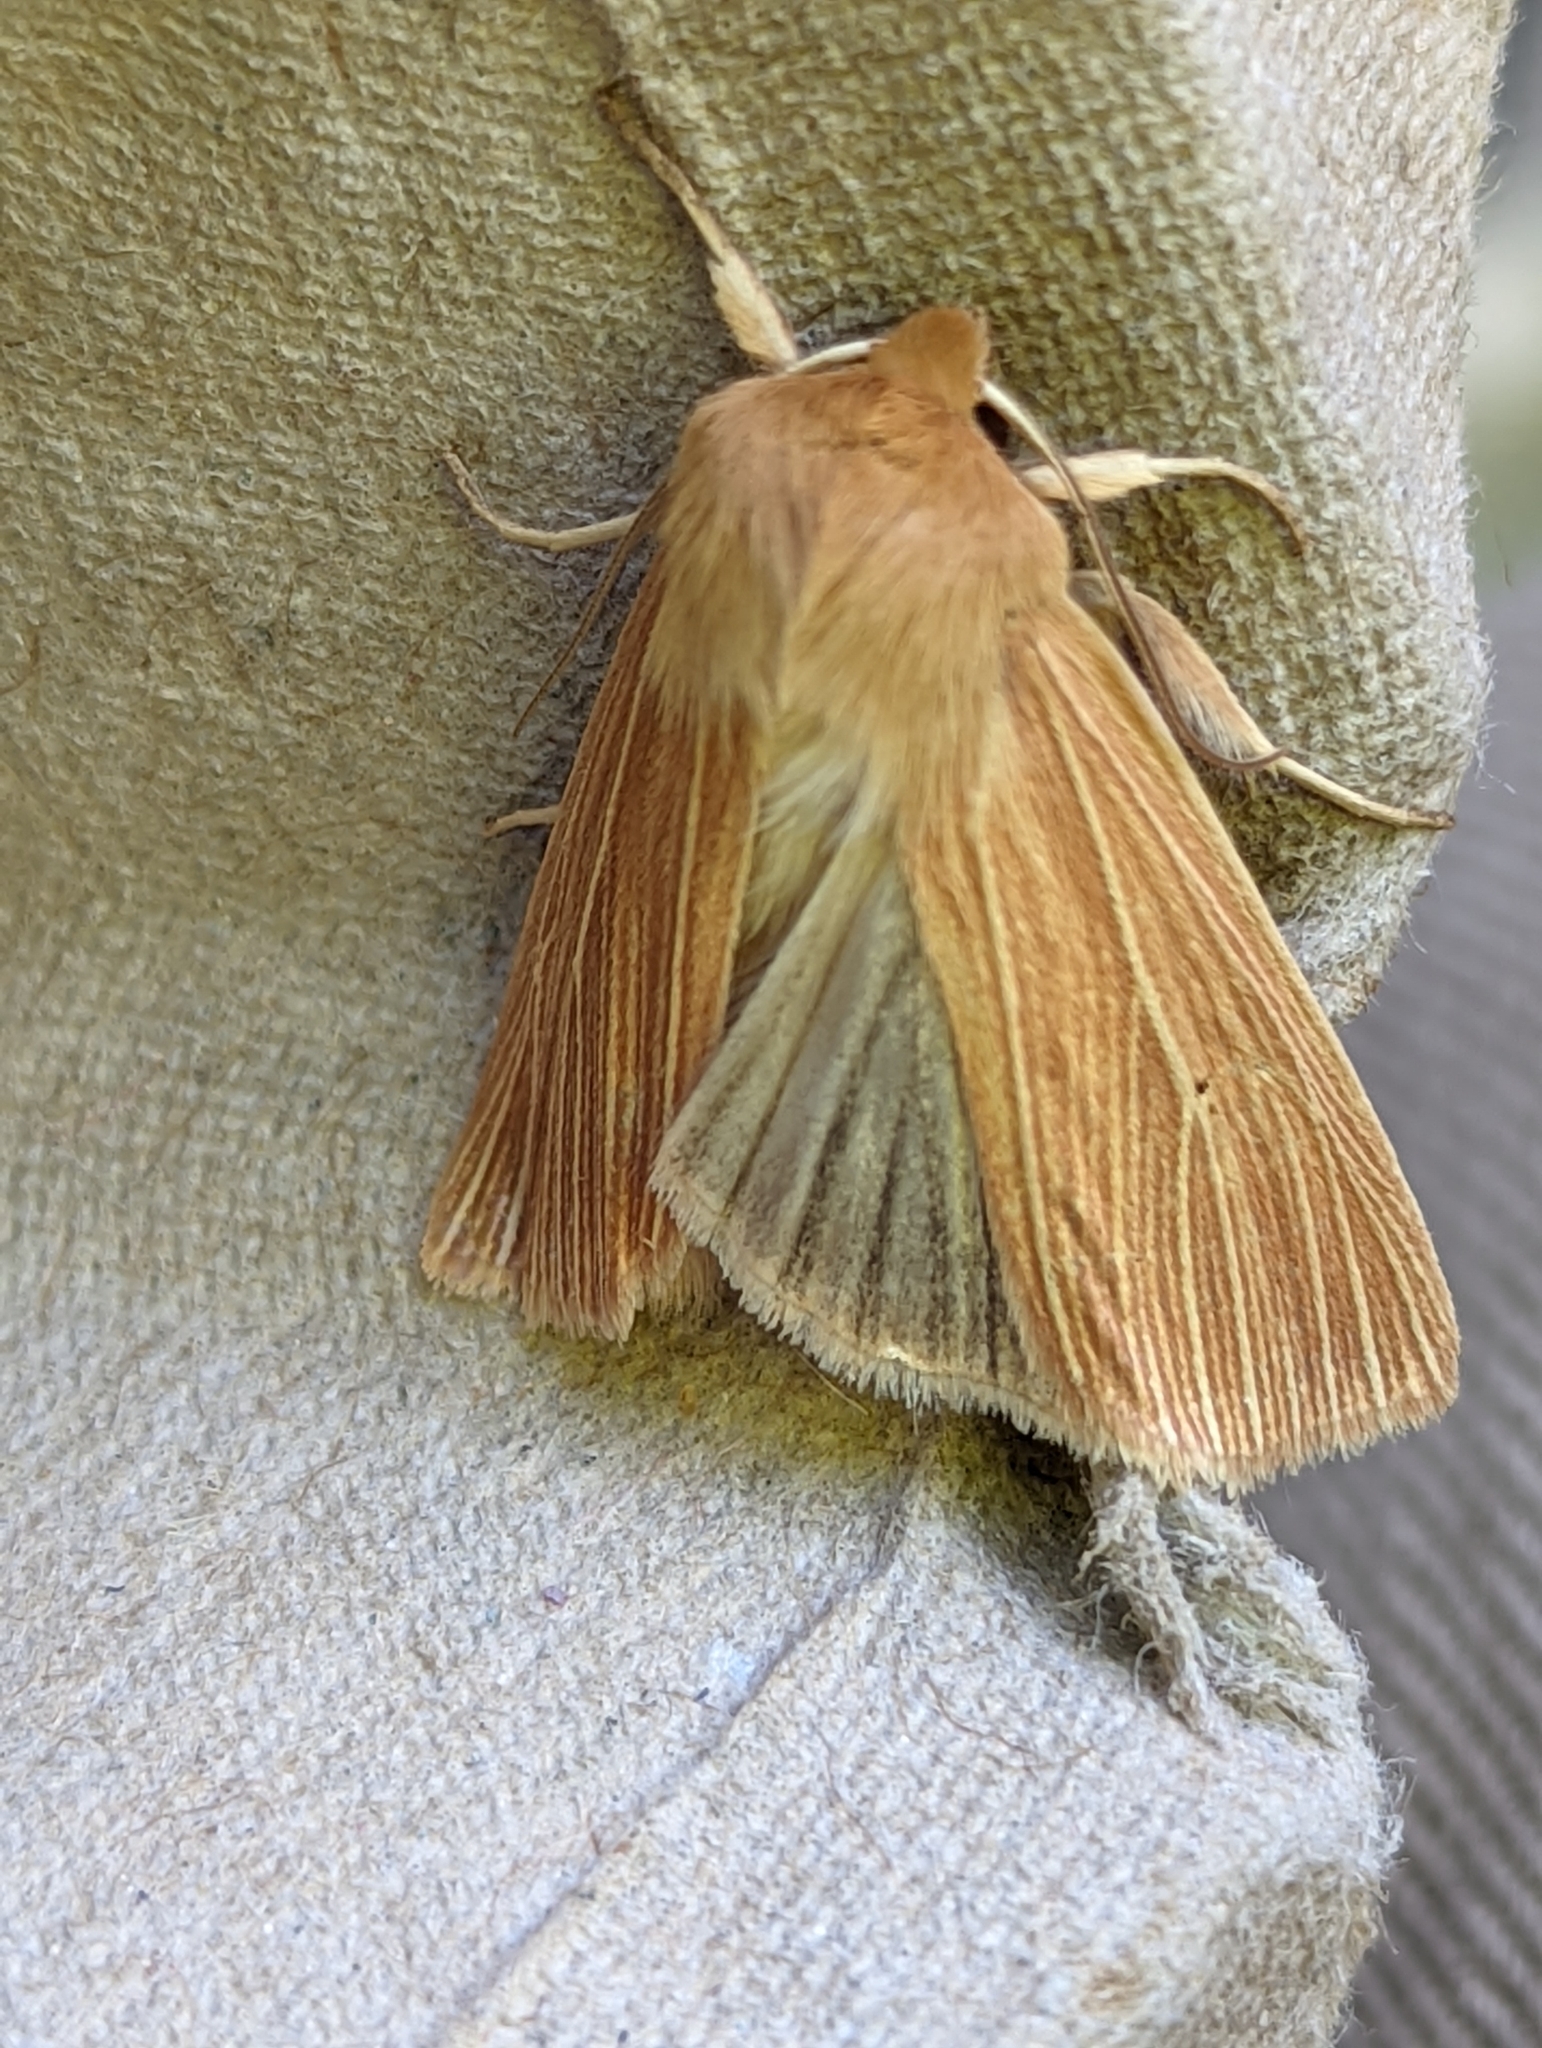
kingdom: Animalia
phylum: Arthropoda
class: Insecta
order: Lepidoptera
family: Noctuidae
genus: Mythimna
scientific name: Mythimna pallens
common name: Common wainscot
